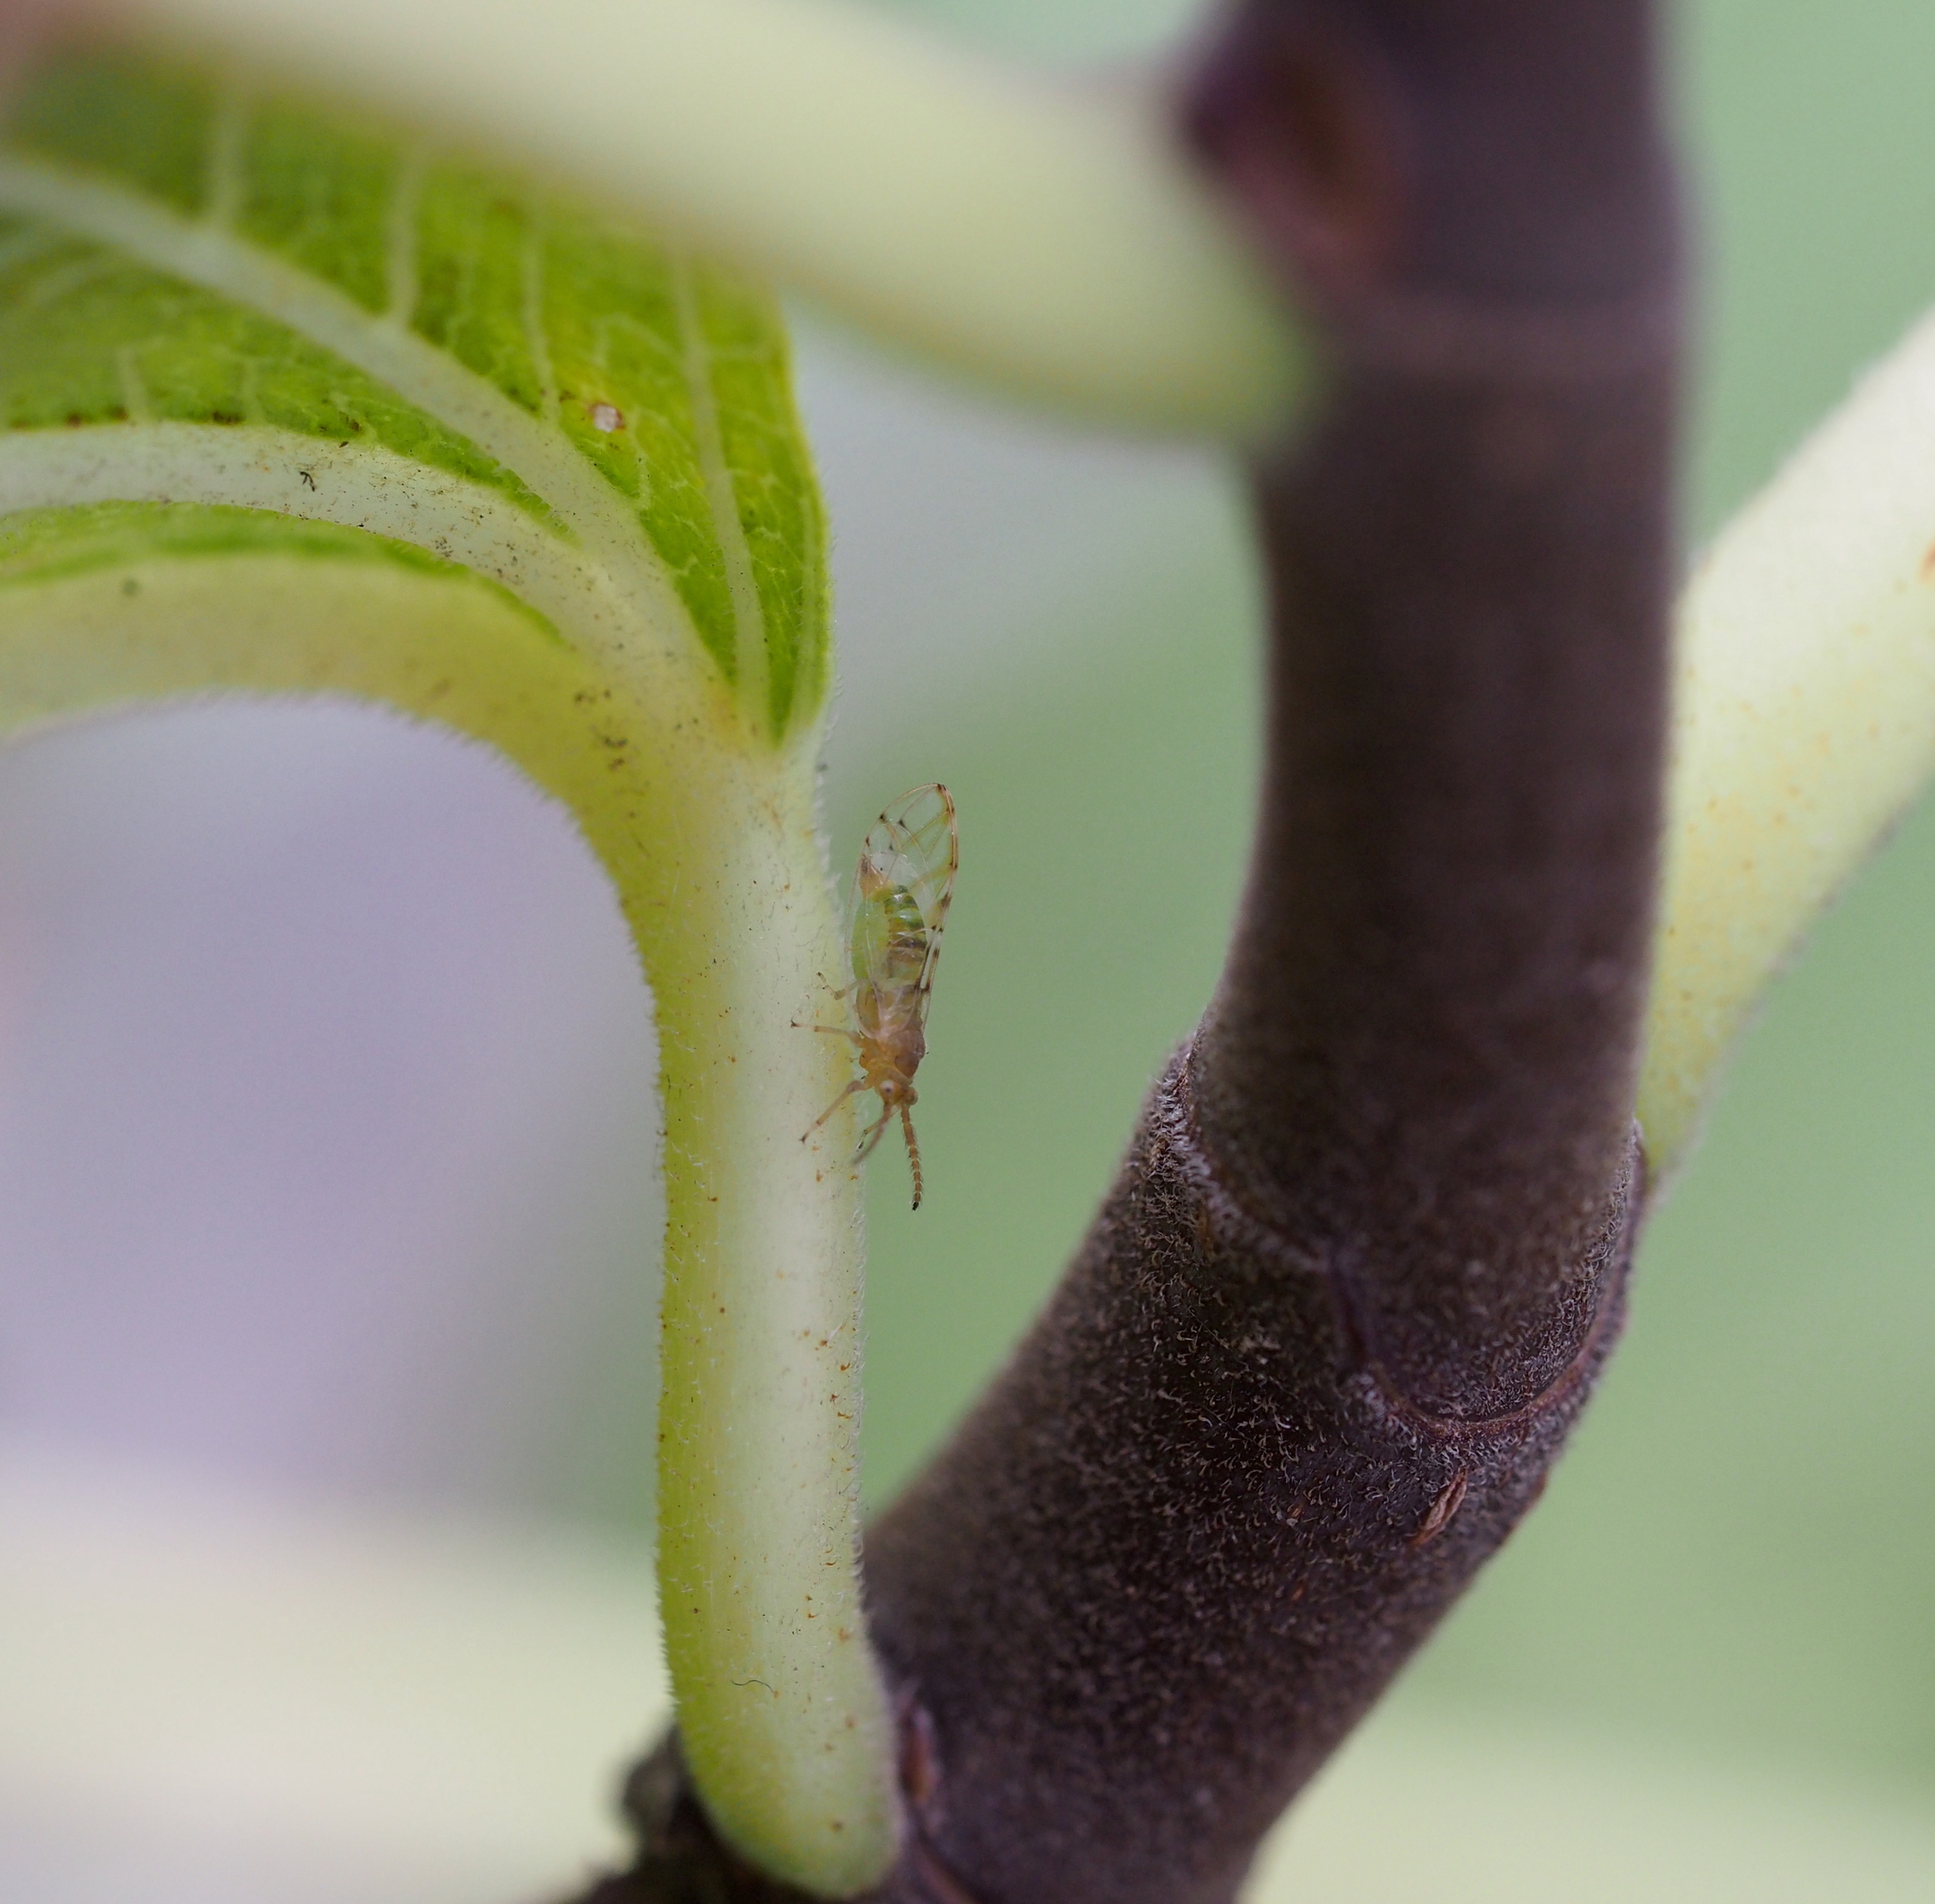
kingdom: Animalia
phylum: Arthropoda
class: Insecta
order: Hemiptera
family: Homotomidae
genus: Homotoma
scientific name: Homotoma ficus
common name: Fig psillid
